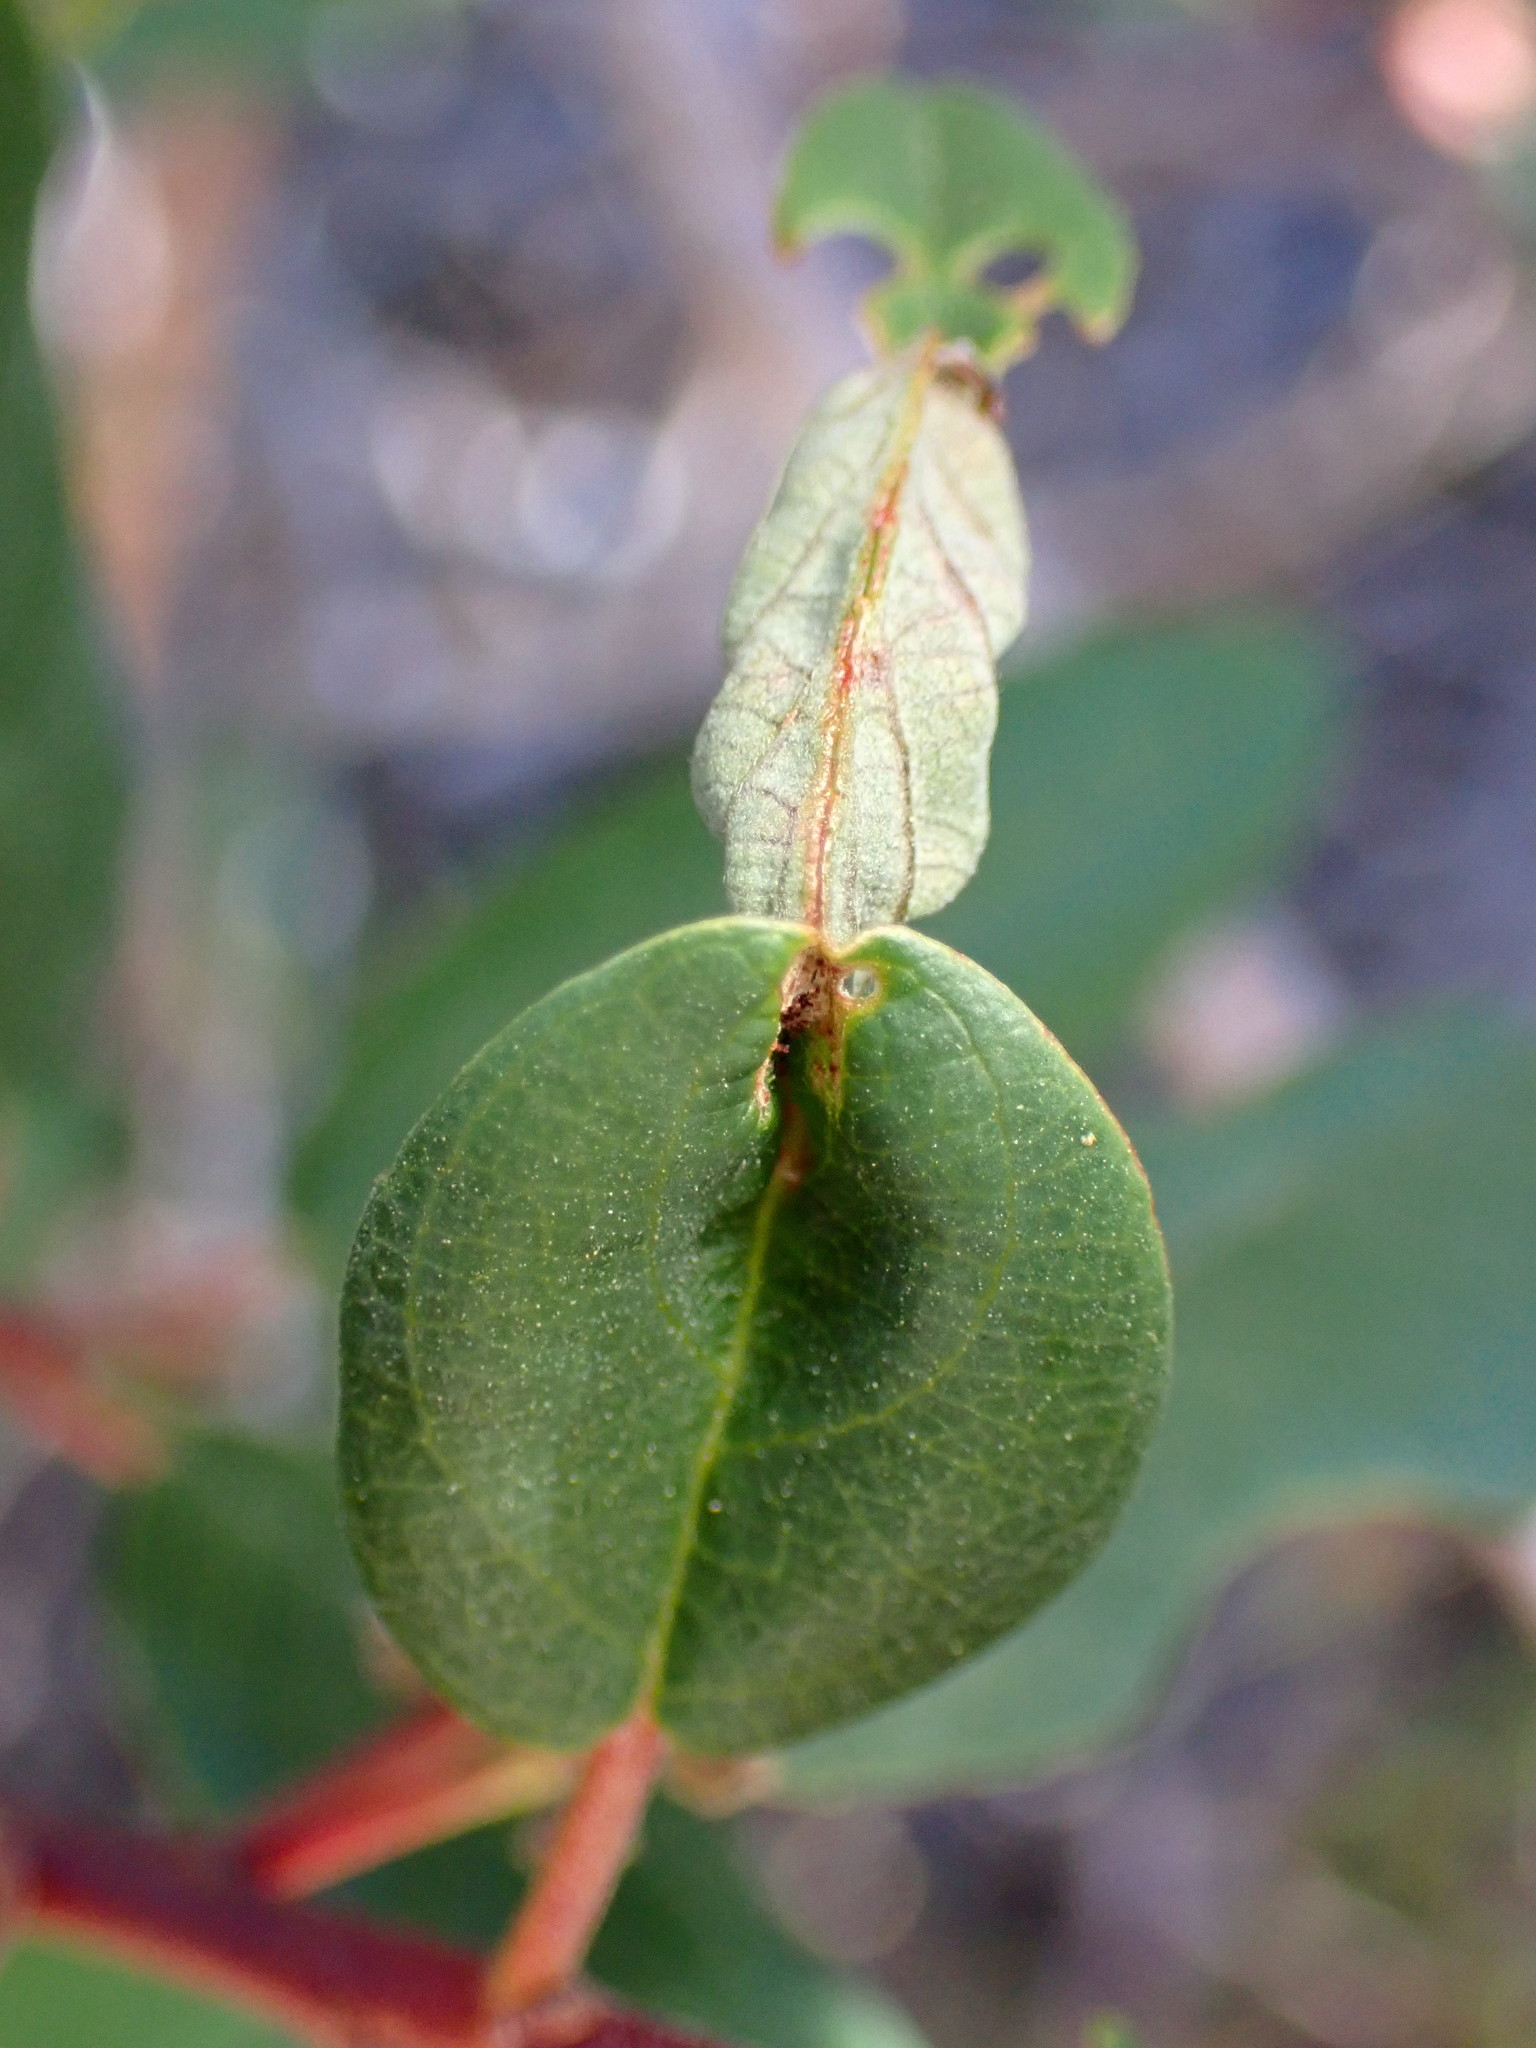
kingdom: Animalia
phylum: Arthropoda
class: Insecta
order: Lepidoptera
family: Cosmopterigidae
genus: Sorhagenia
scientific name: Sorhagenia nimbosus
